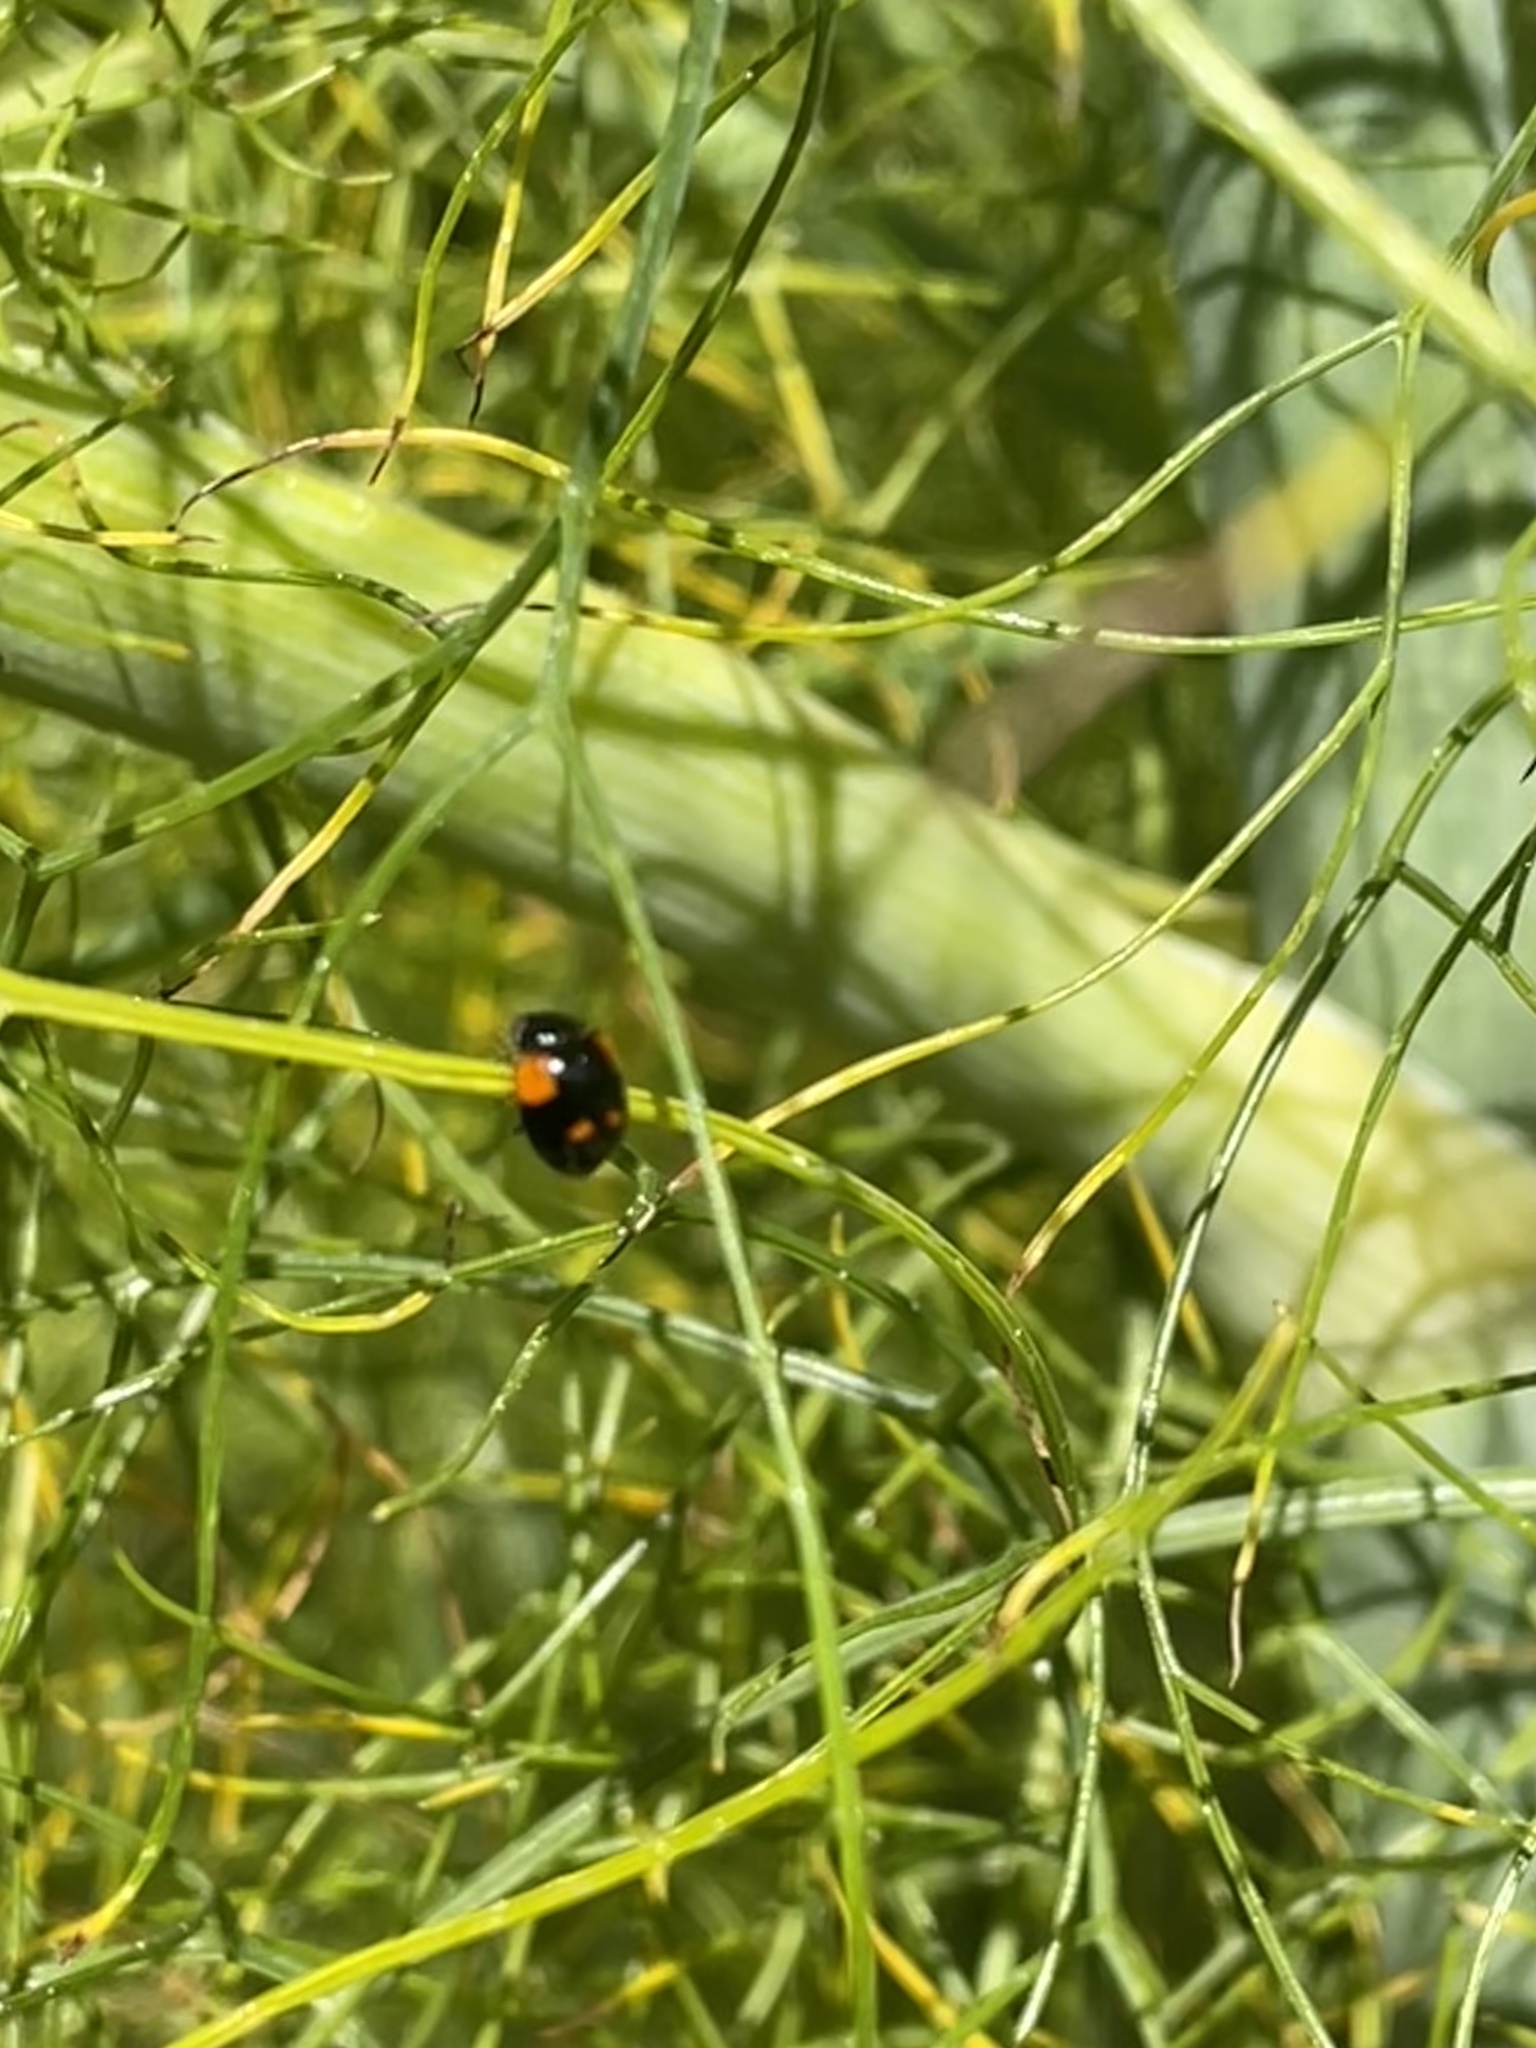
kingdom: Animalia
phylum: Arthropoda
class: Insecta
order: Coleoptera
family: Coccinellidae
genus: Adalia
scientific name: Adalia bipunctata
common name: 2-spot ladybird
